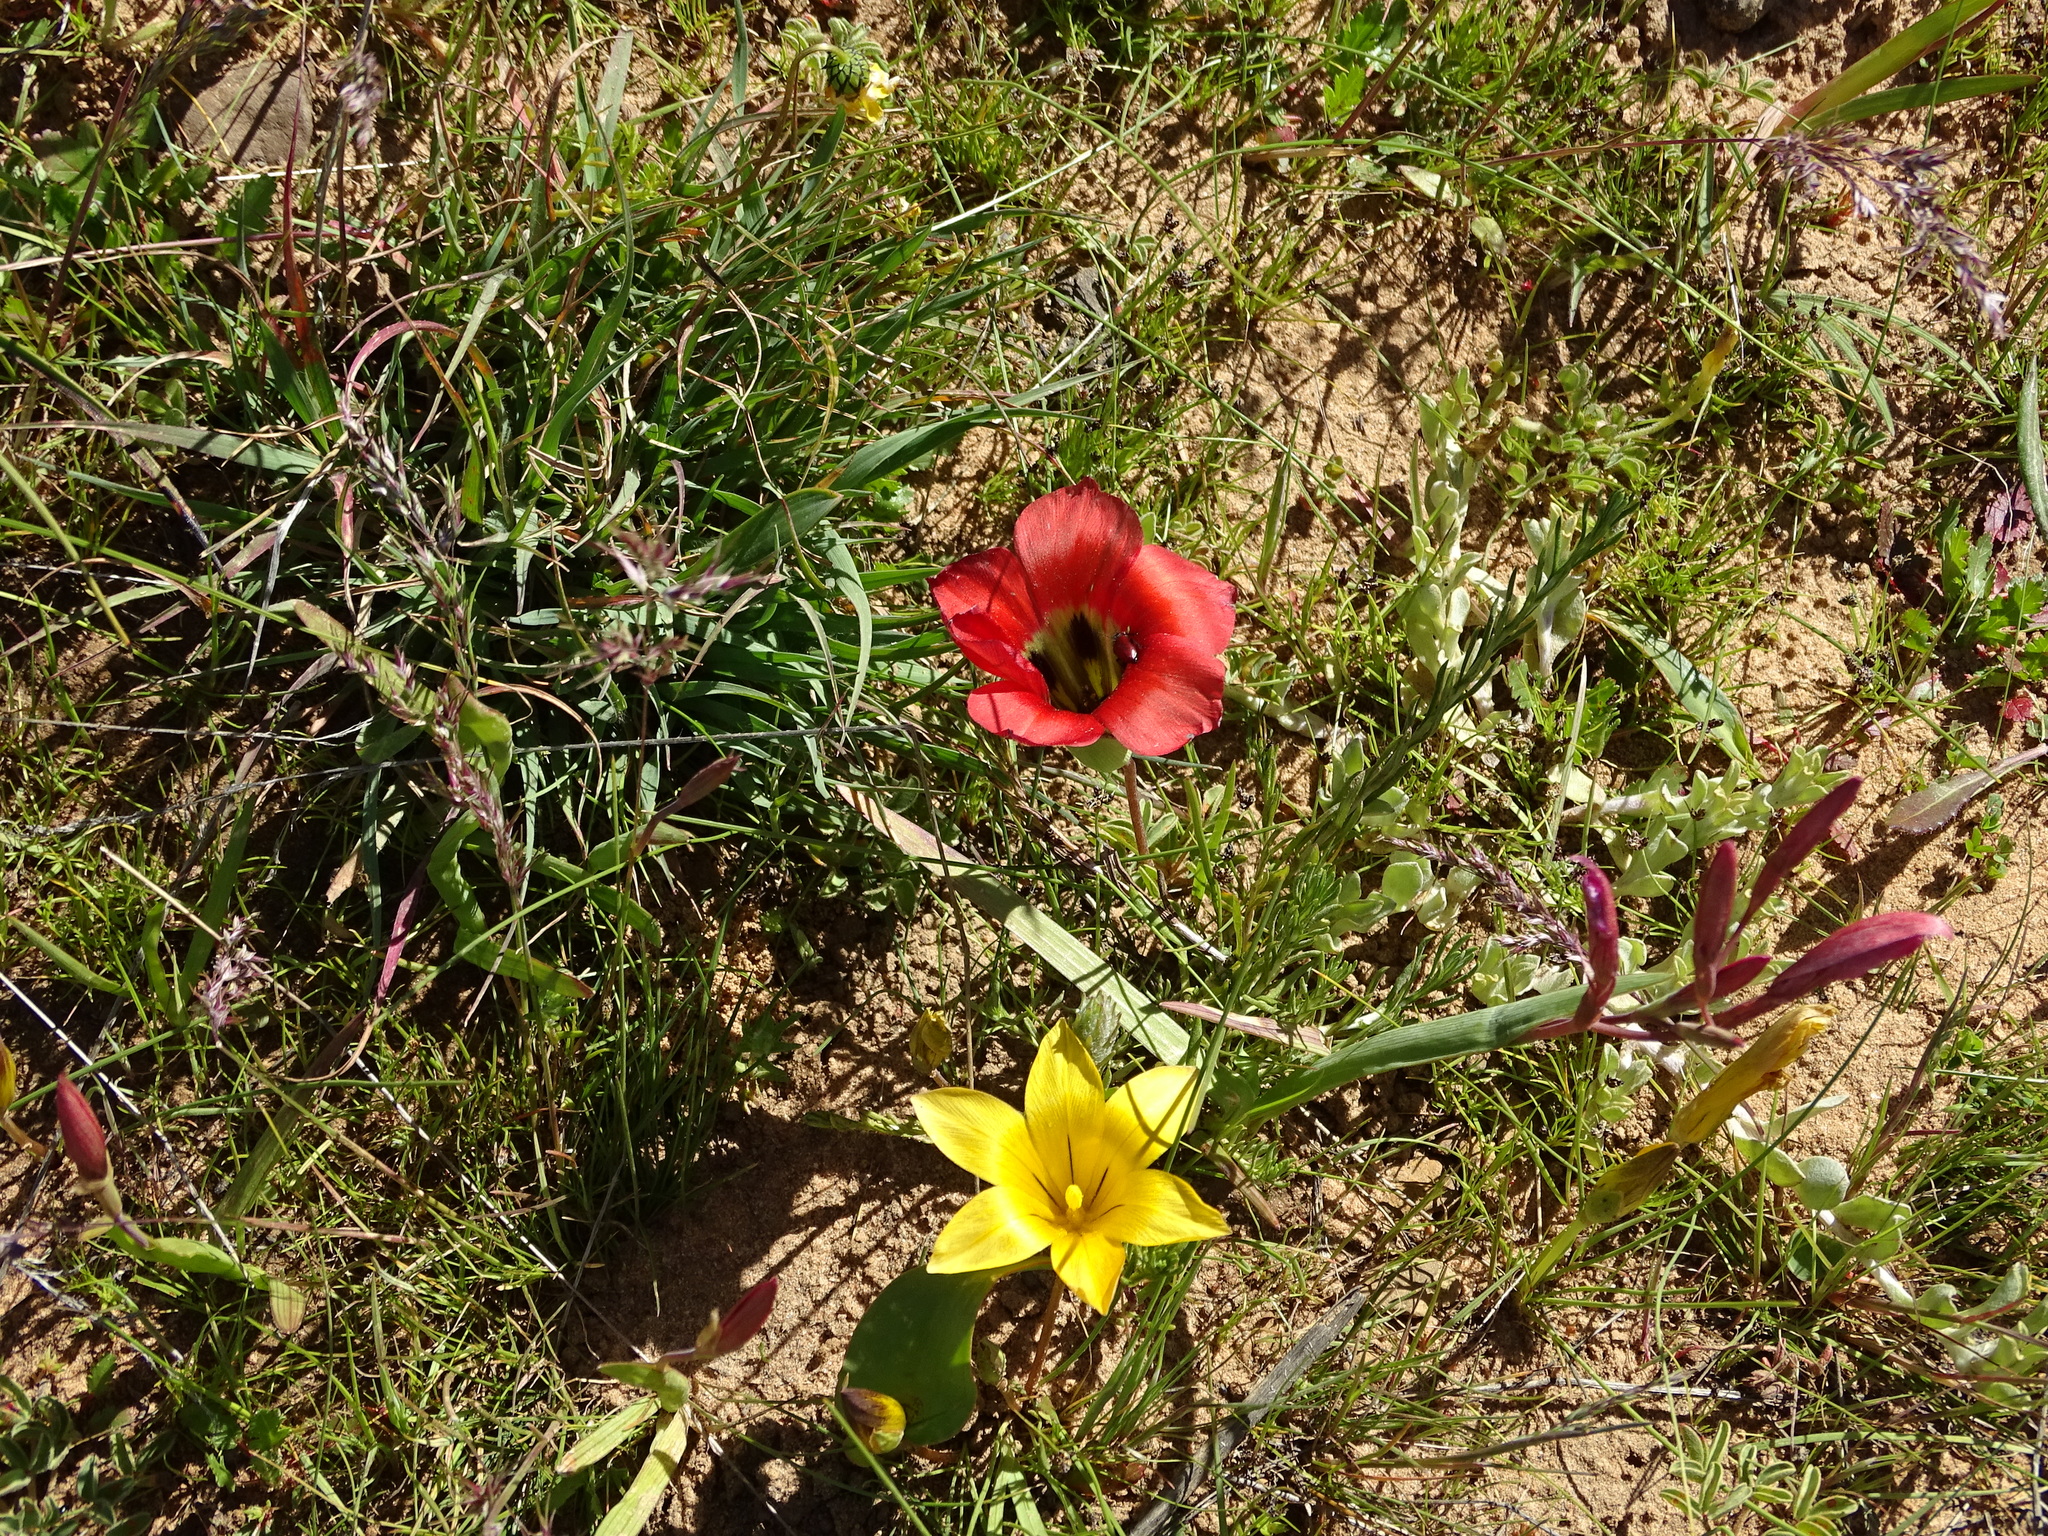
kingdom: Plantae
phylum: Tracheophyta
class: Liliopsida
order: Asparagales
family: Iridaceae
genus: Romulea
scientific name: Romulea sabulosa
